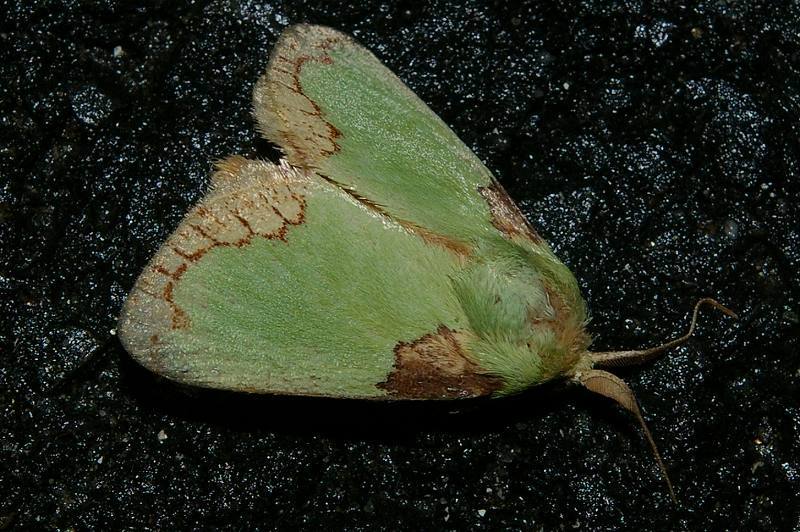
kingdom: Animalia
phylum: Arthropoda
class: Insecta
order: Lepidoptera
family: Limacodidae
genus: Parasa
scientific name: Parasa consocia
